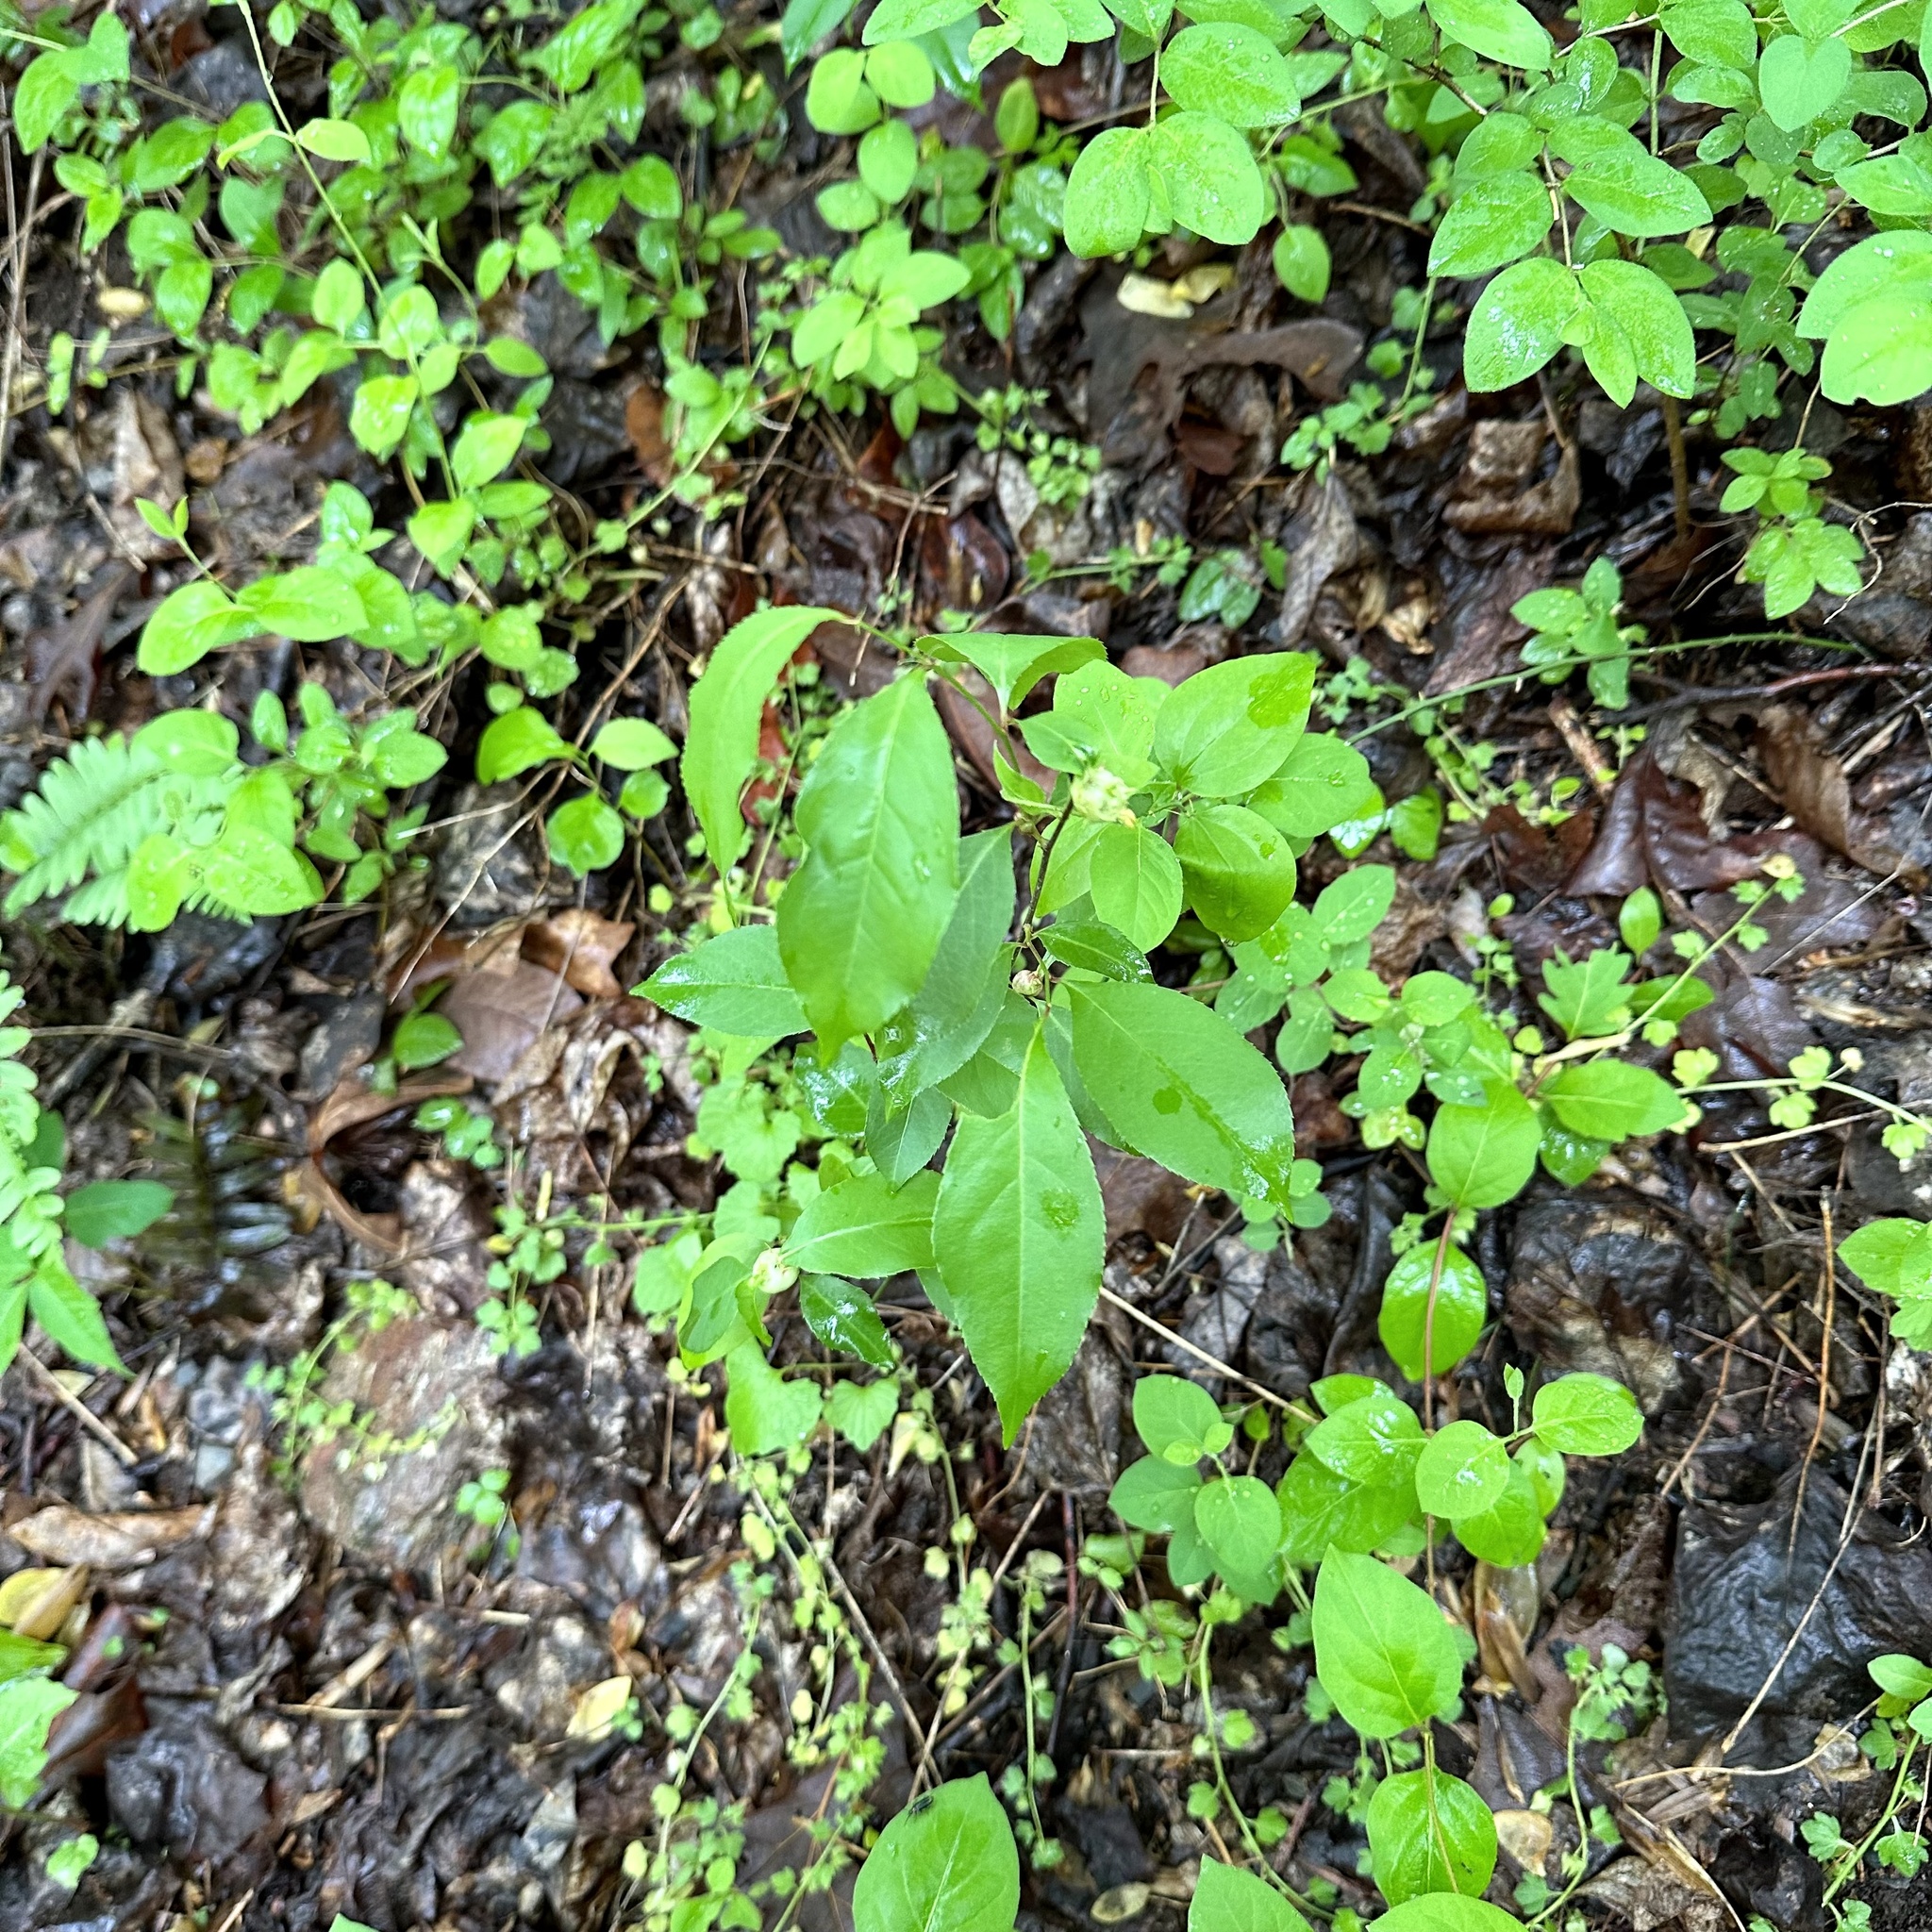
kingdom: Animalia
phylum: Arthropoda
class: Insecta
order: Diptera
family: Cecidomyiidae
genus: Contarinia
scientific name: Contarinia cerasiserotinae
